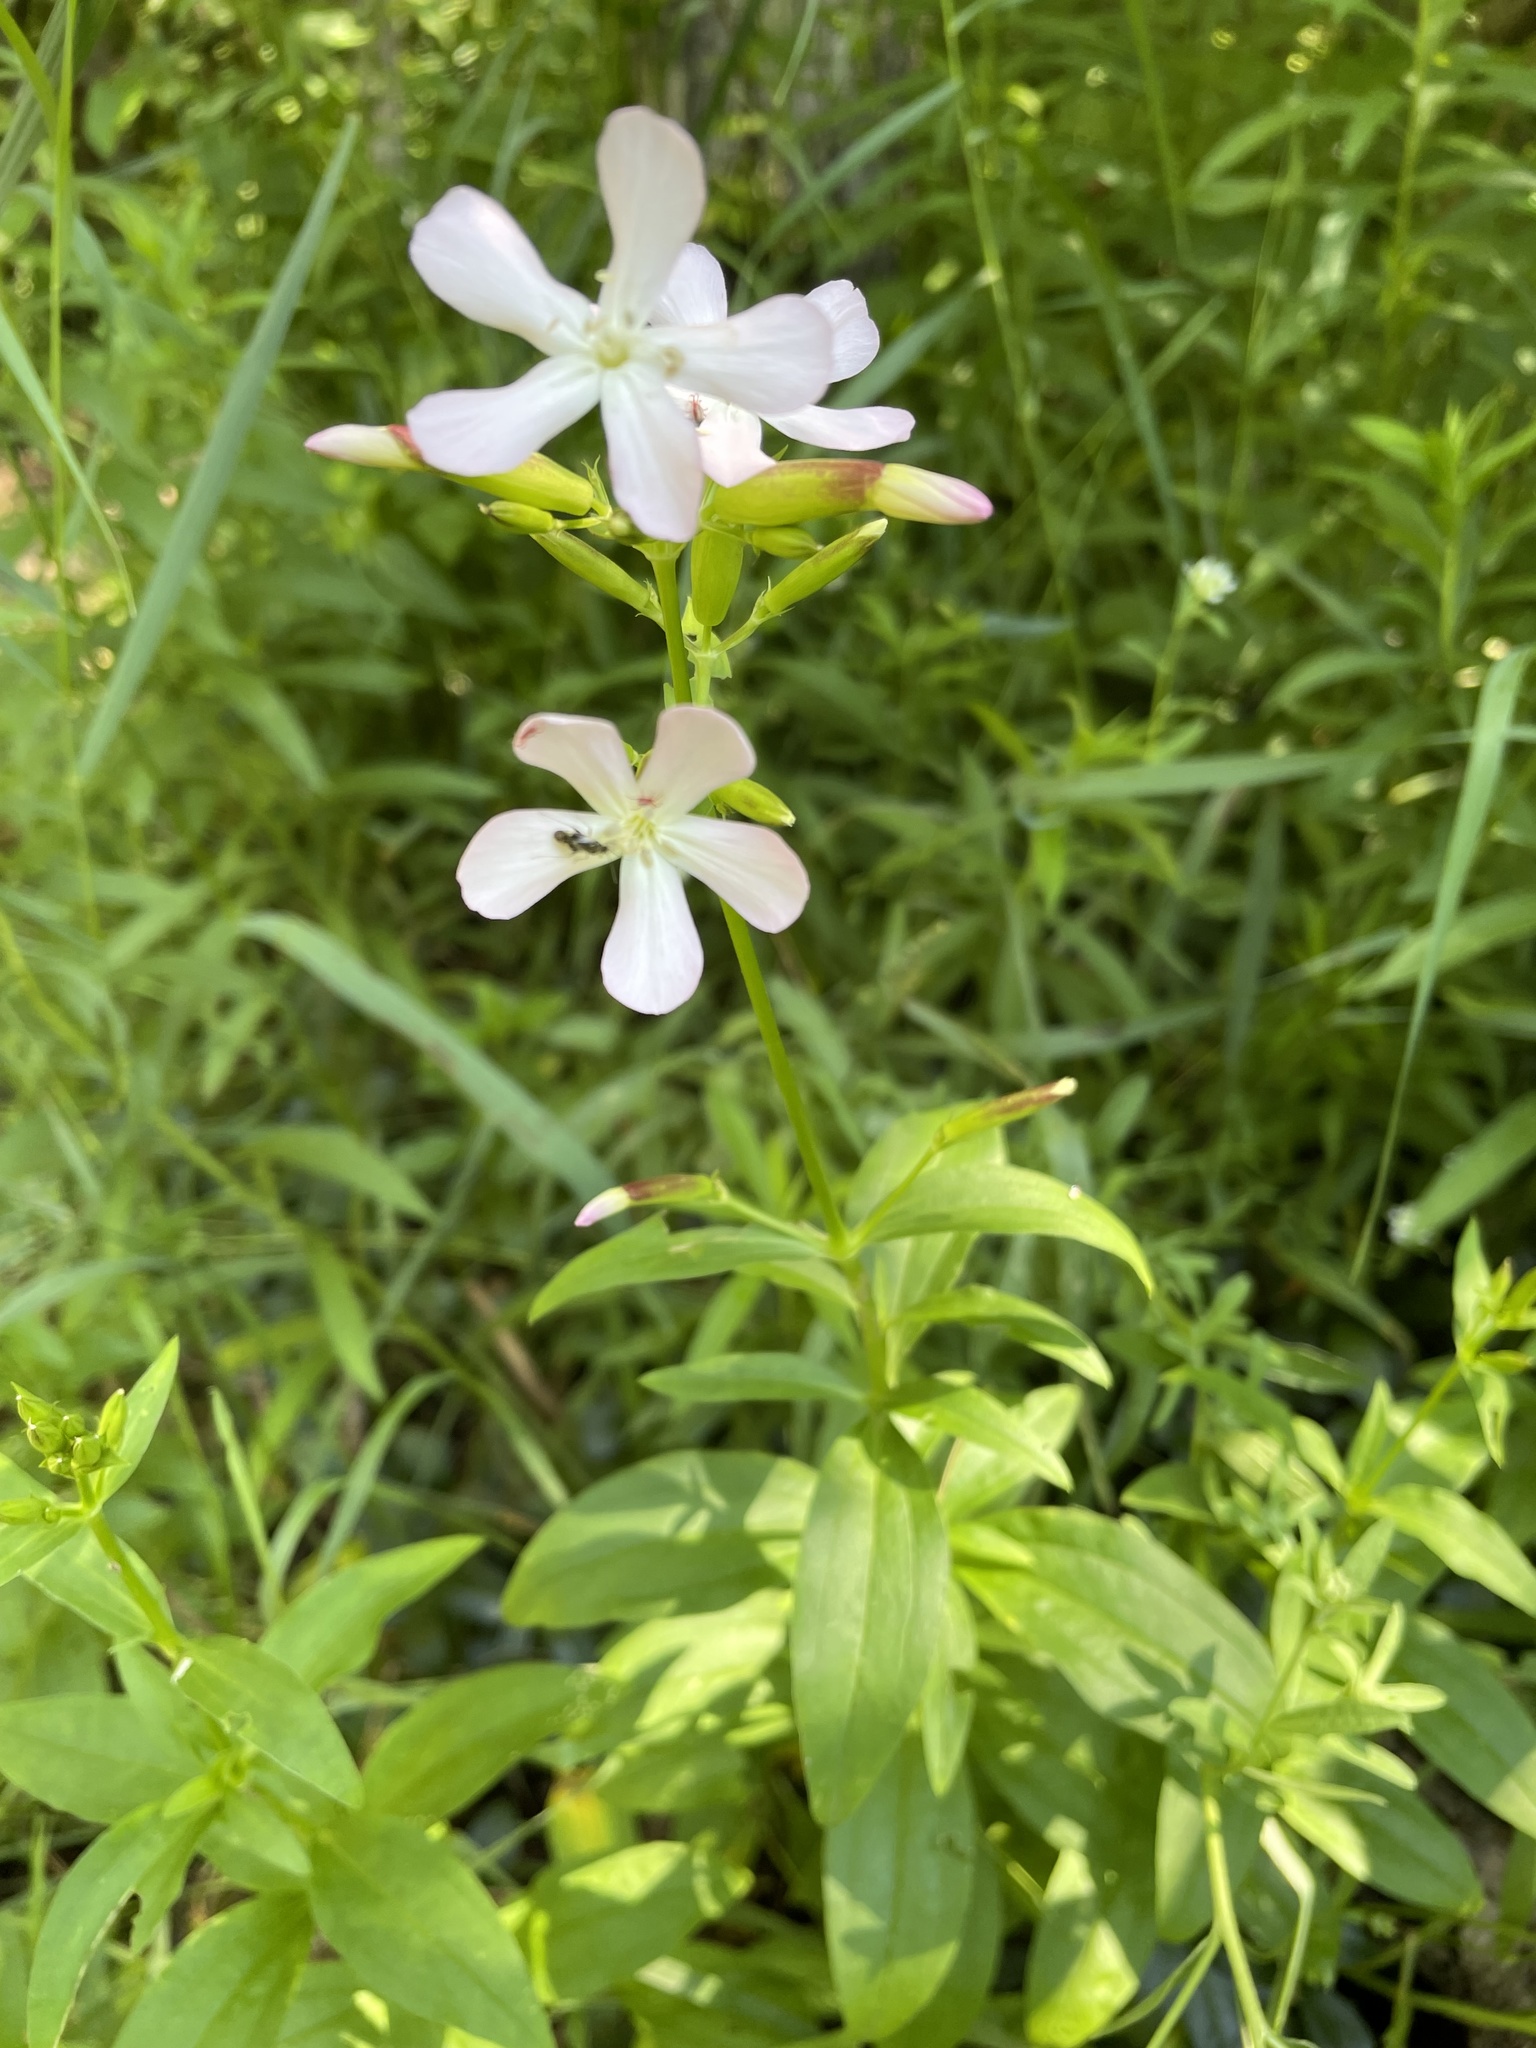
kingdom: Plantae
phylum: Tracheophyta
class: Magnoliopsida
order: Caryophyllales
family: Caryophyllaceae
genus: Saponaria
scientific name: Saponaria officinalis
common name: Soapwort
